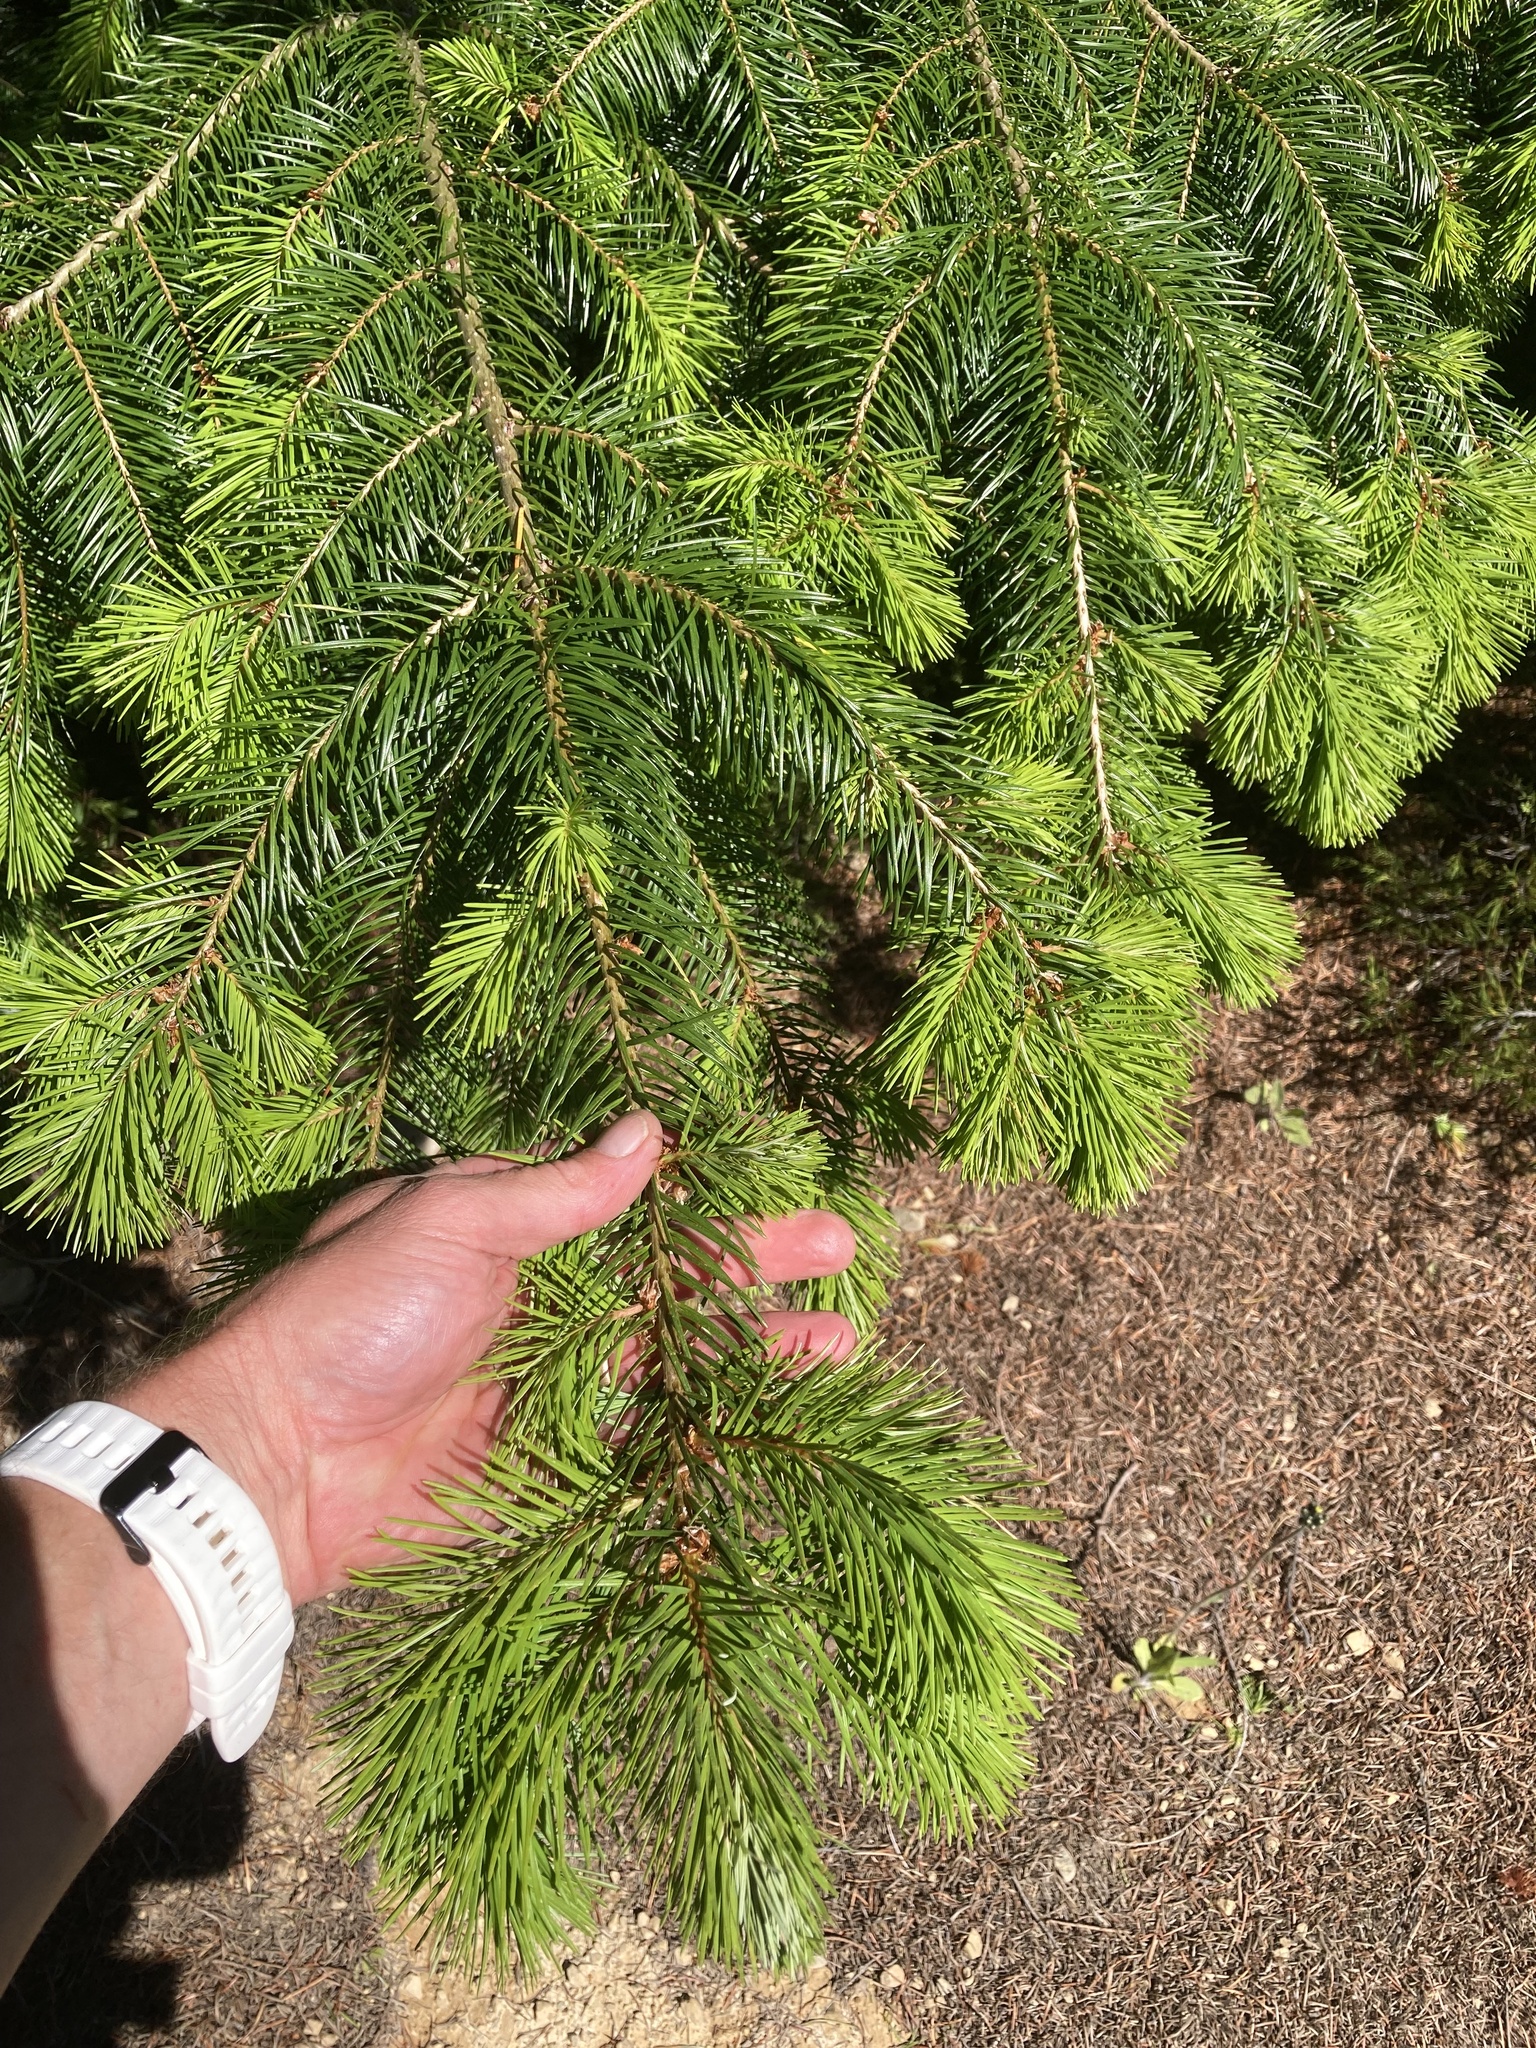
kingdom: Plantae
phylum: Tracheophyta
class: Pinopsida
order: Pinales
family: Pinaceae
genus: Pseudotsuga
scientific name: Pseudotsuga menziesii
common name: Douglas fir
